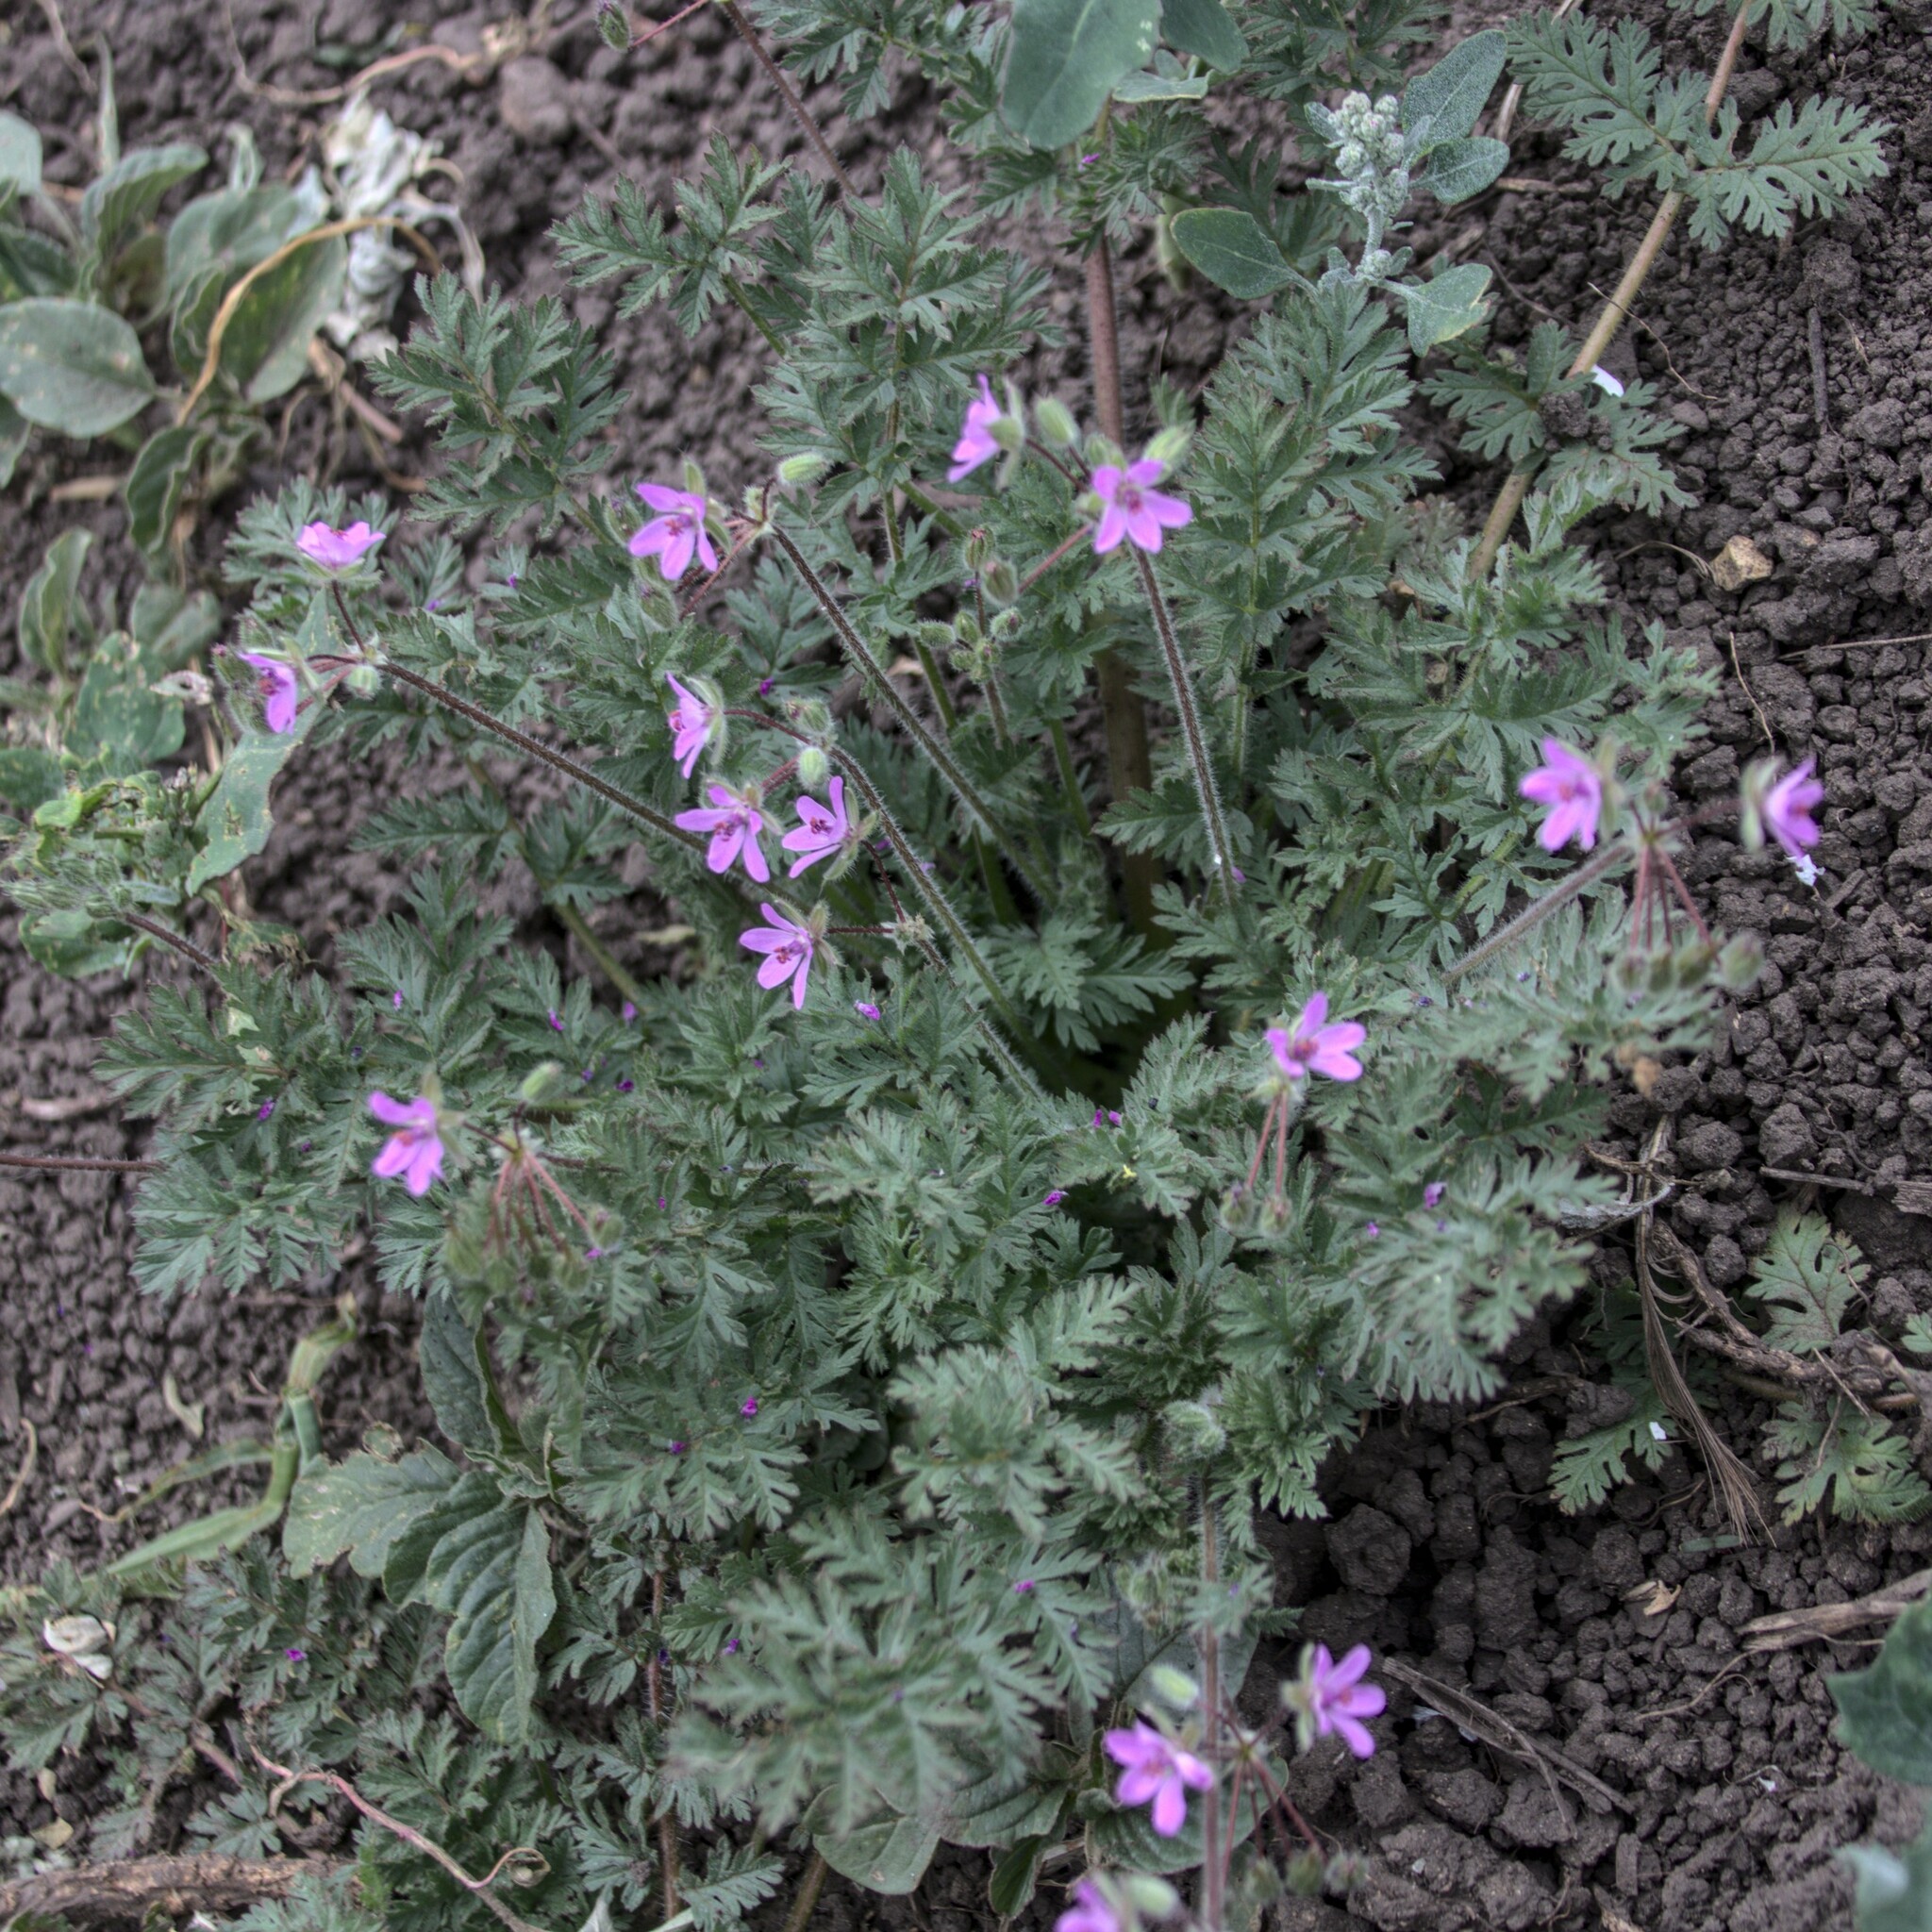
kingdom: Plantae
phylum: Tracheophyta
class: Magnoliopsida
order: Geraniales
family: Geraniaceae
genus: Erodium
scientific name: Erodium cicutarium
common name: Common stork's-bill
